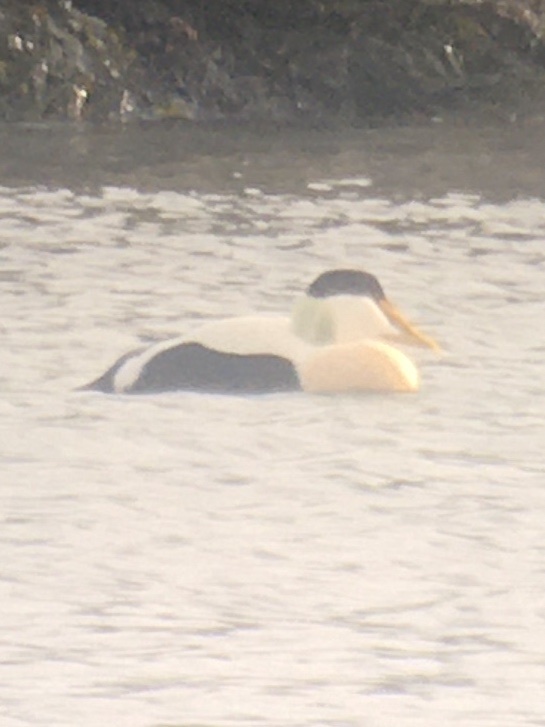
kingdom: Animalia
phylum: Chordata
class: Aves
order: Anseriformes
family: Anatidae
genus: Somateria
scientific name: Somateria mollissima
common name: Common eider
